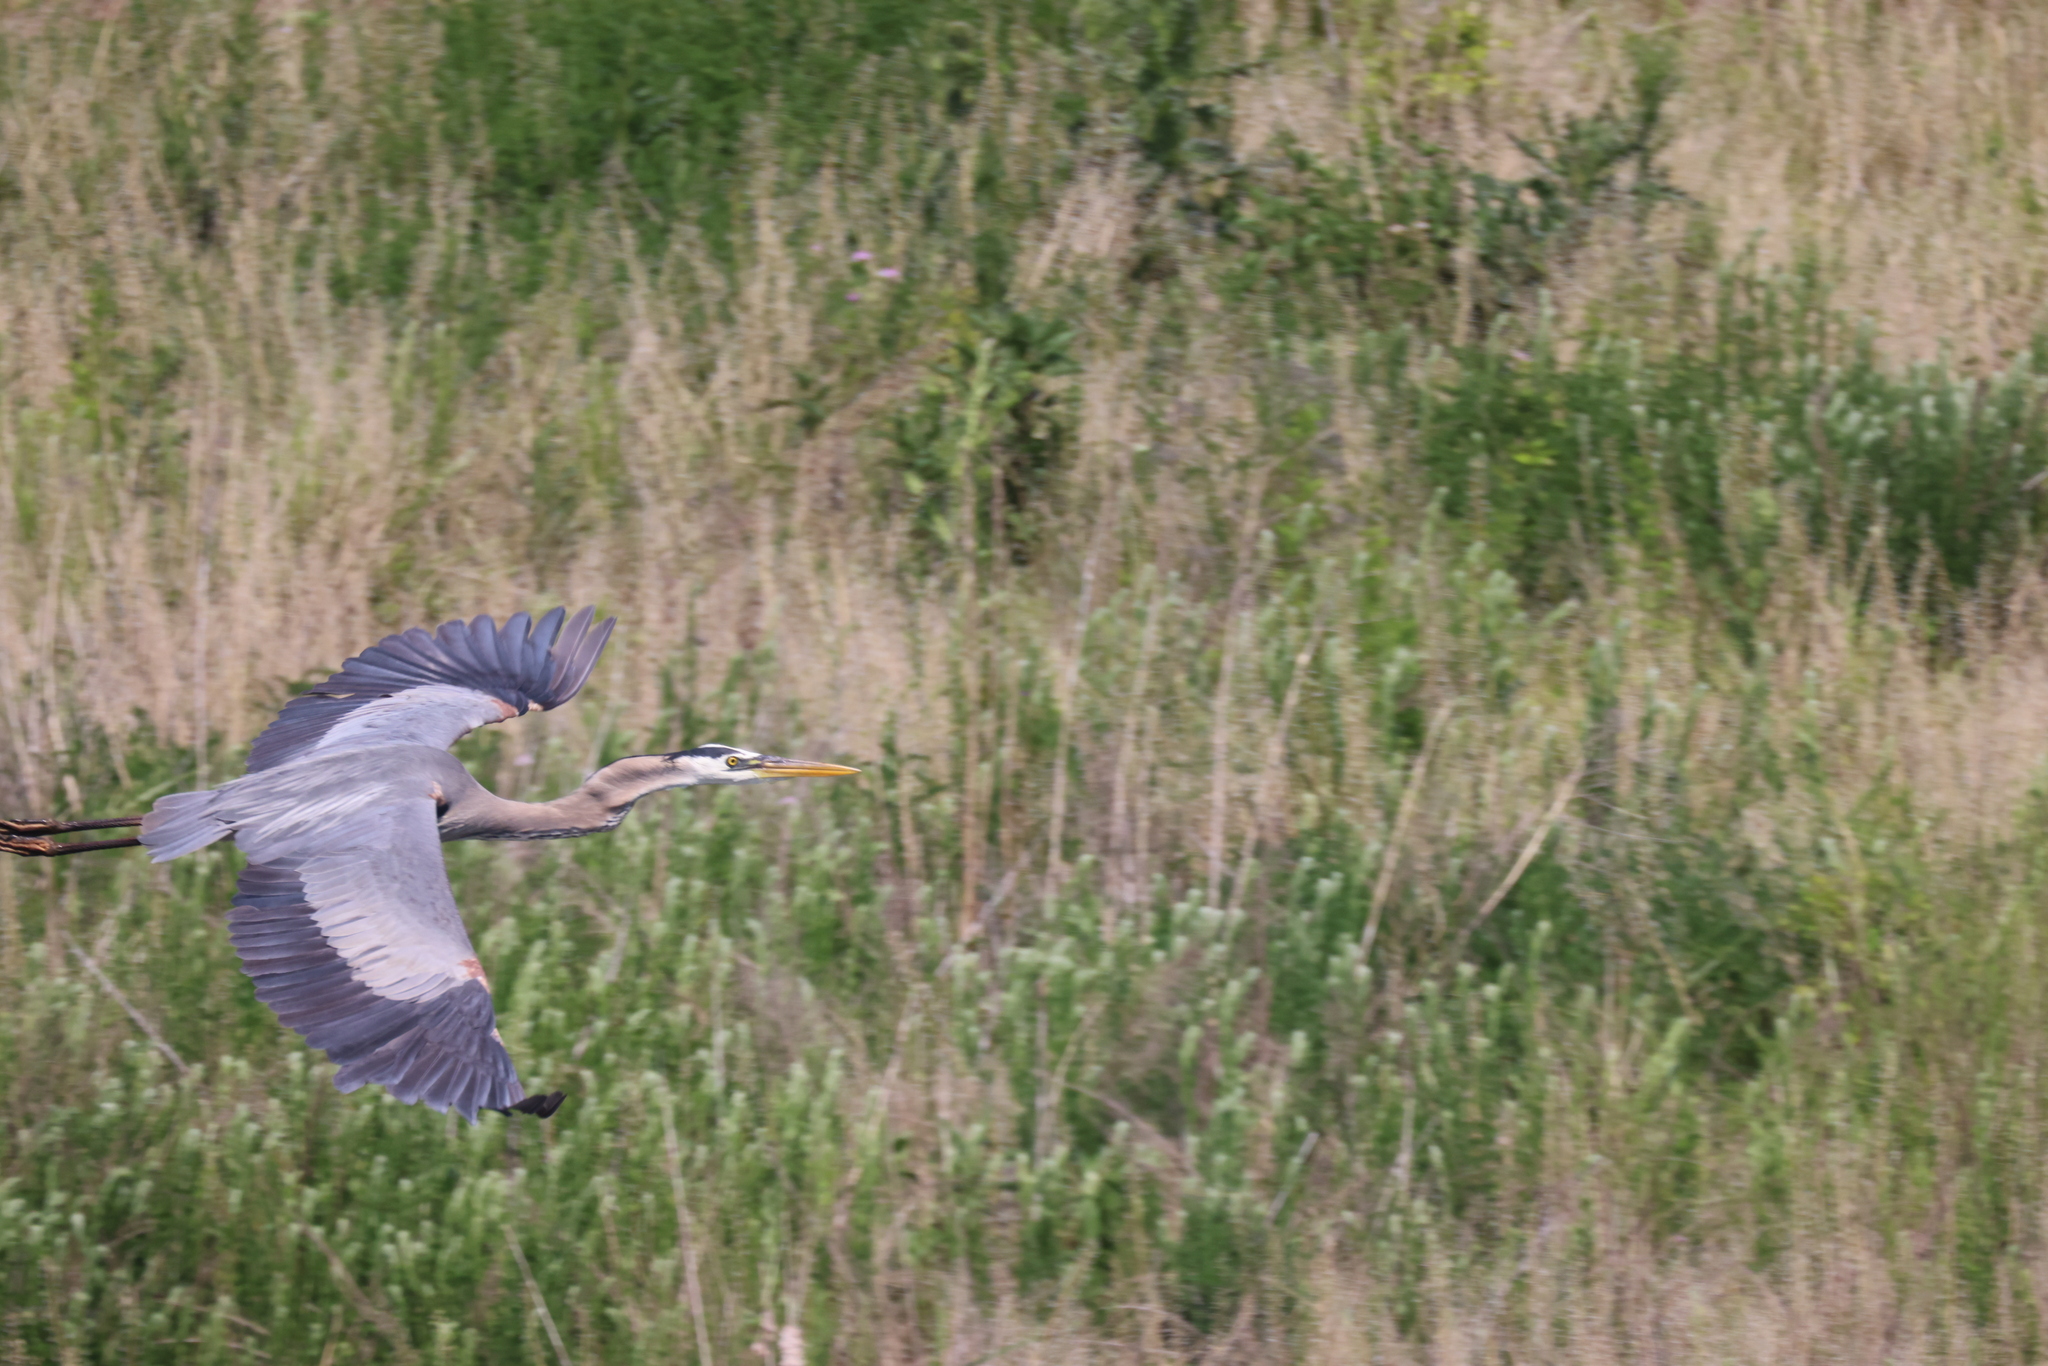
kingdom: Animalia
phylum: Chordata
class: Aves
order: Pelecaniformes
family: Ardeidae
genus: Ardea
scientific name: Ardea herodias
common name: Great blue heron
